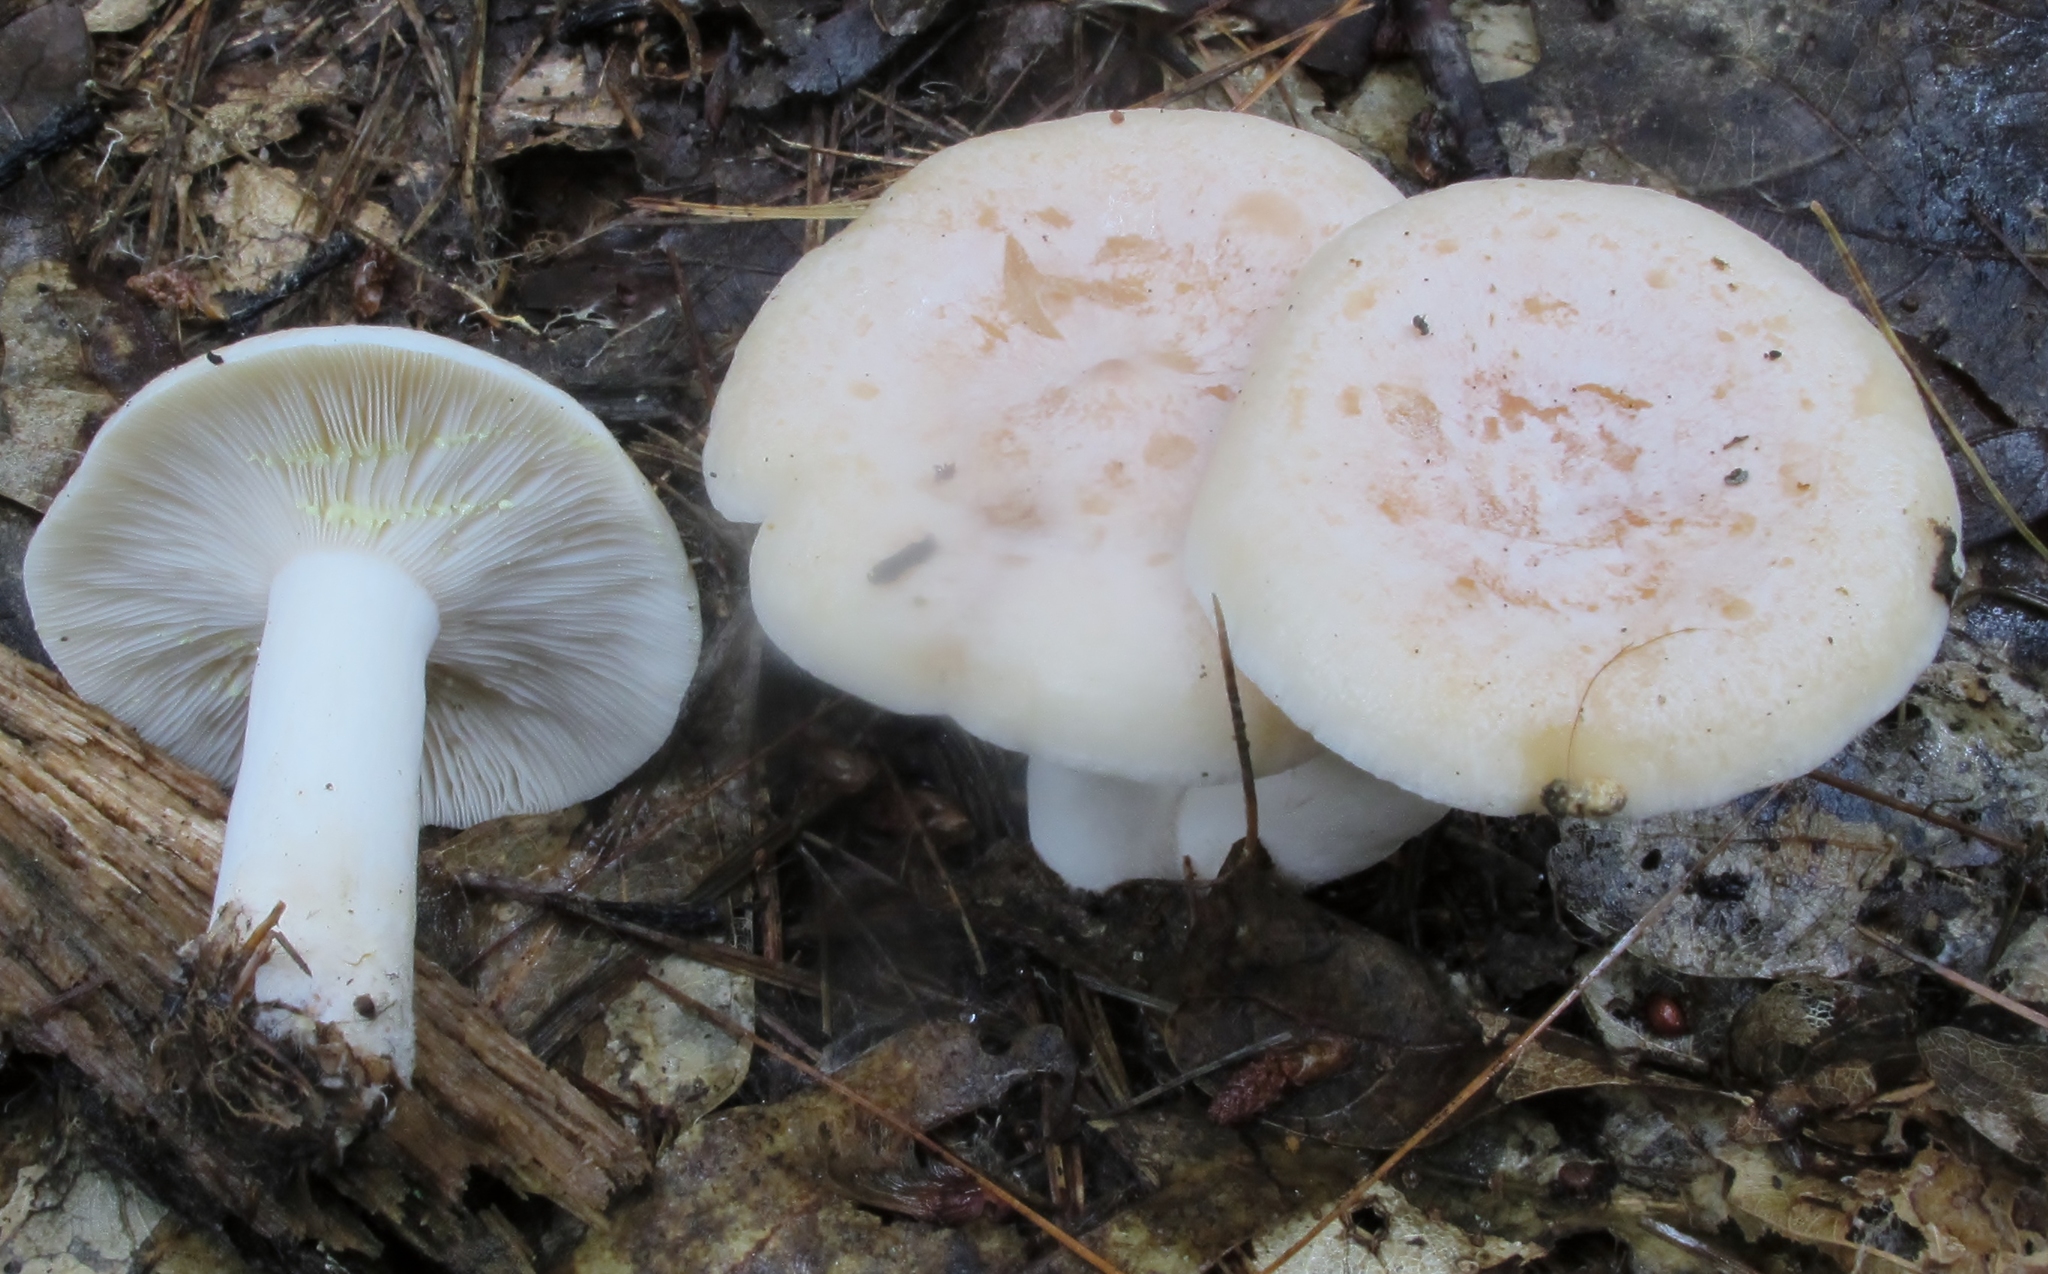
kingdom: Fungi
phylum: Basidiomycota
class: Agaricomycetes
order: Russulales
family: Russulaceae
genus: Lactarius
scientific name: Lactarius chrysorrheus
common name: Yellowdrop milkcap
